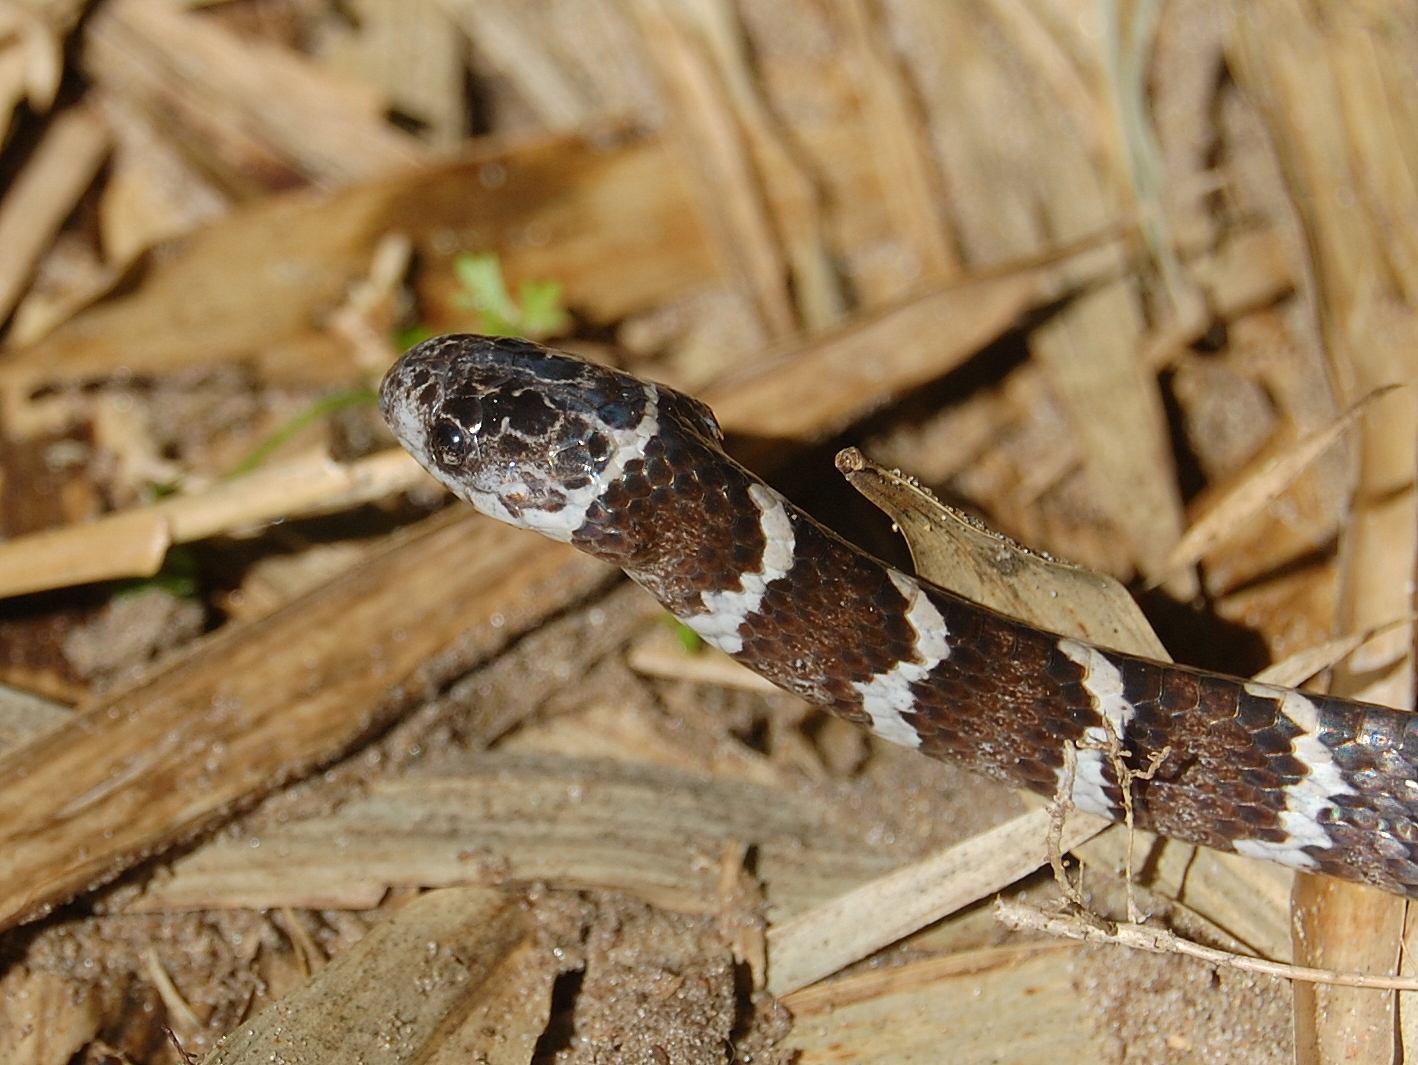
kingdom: Animalia
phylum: Chordata
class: Squamata
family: Colubridae
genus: Dipsas
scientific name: Dipsas ventrimaculata
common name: Boulenger's tree snake
